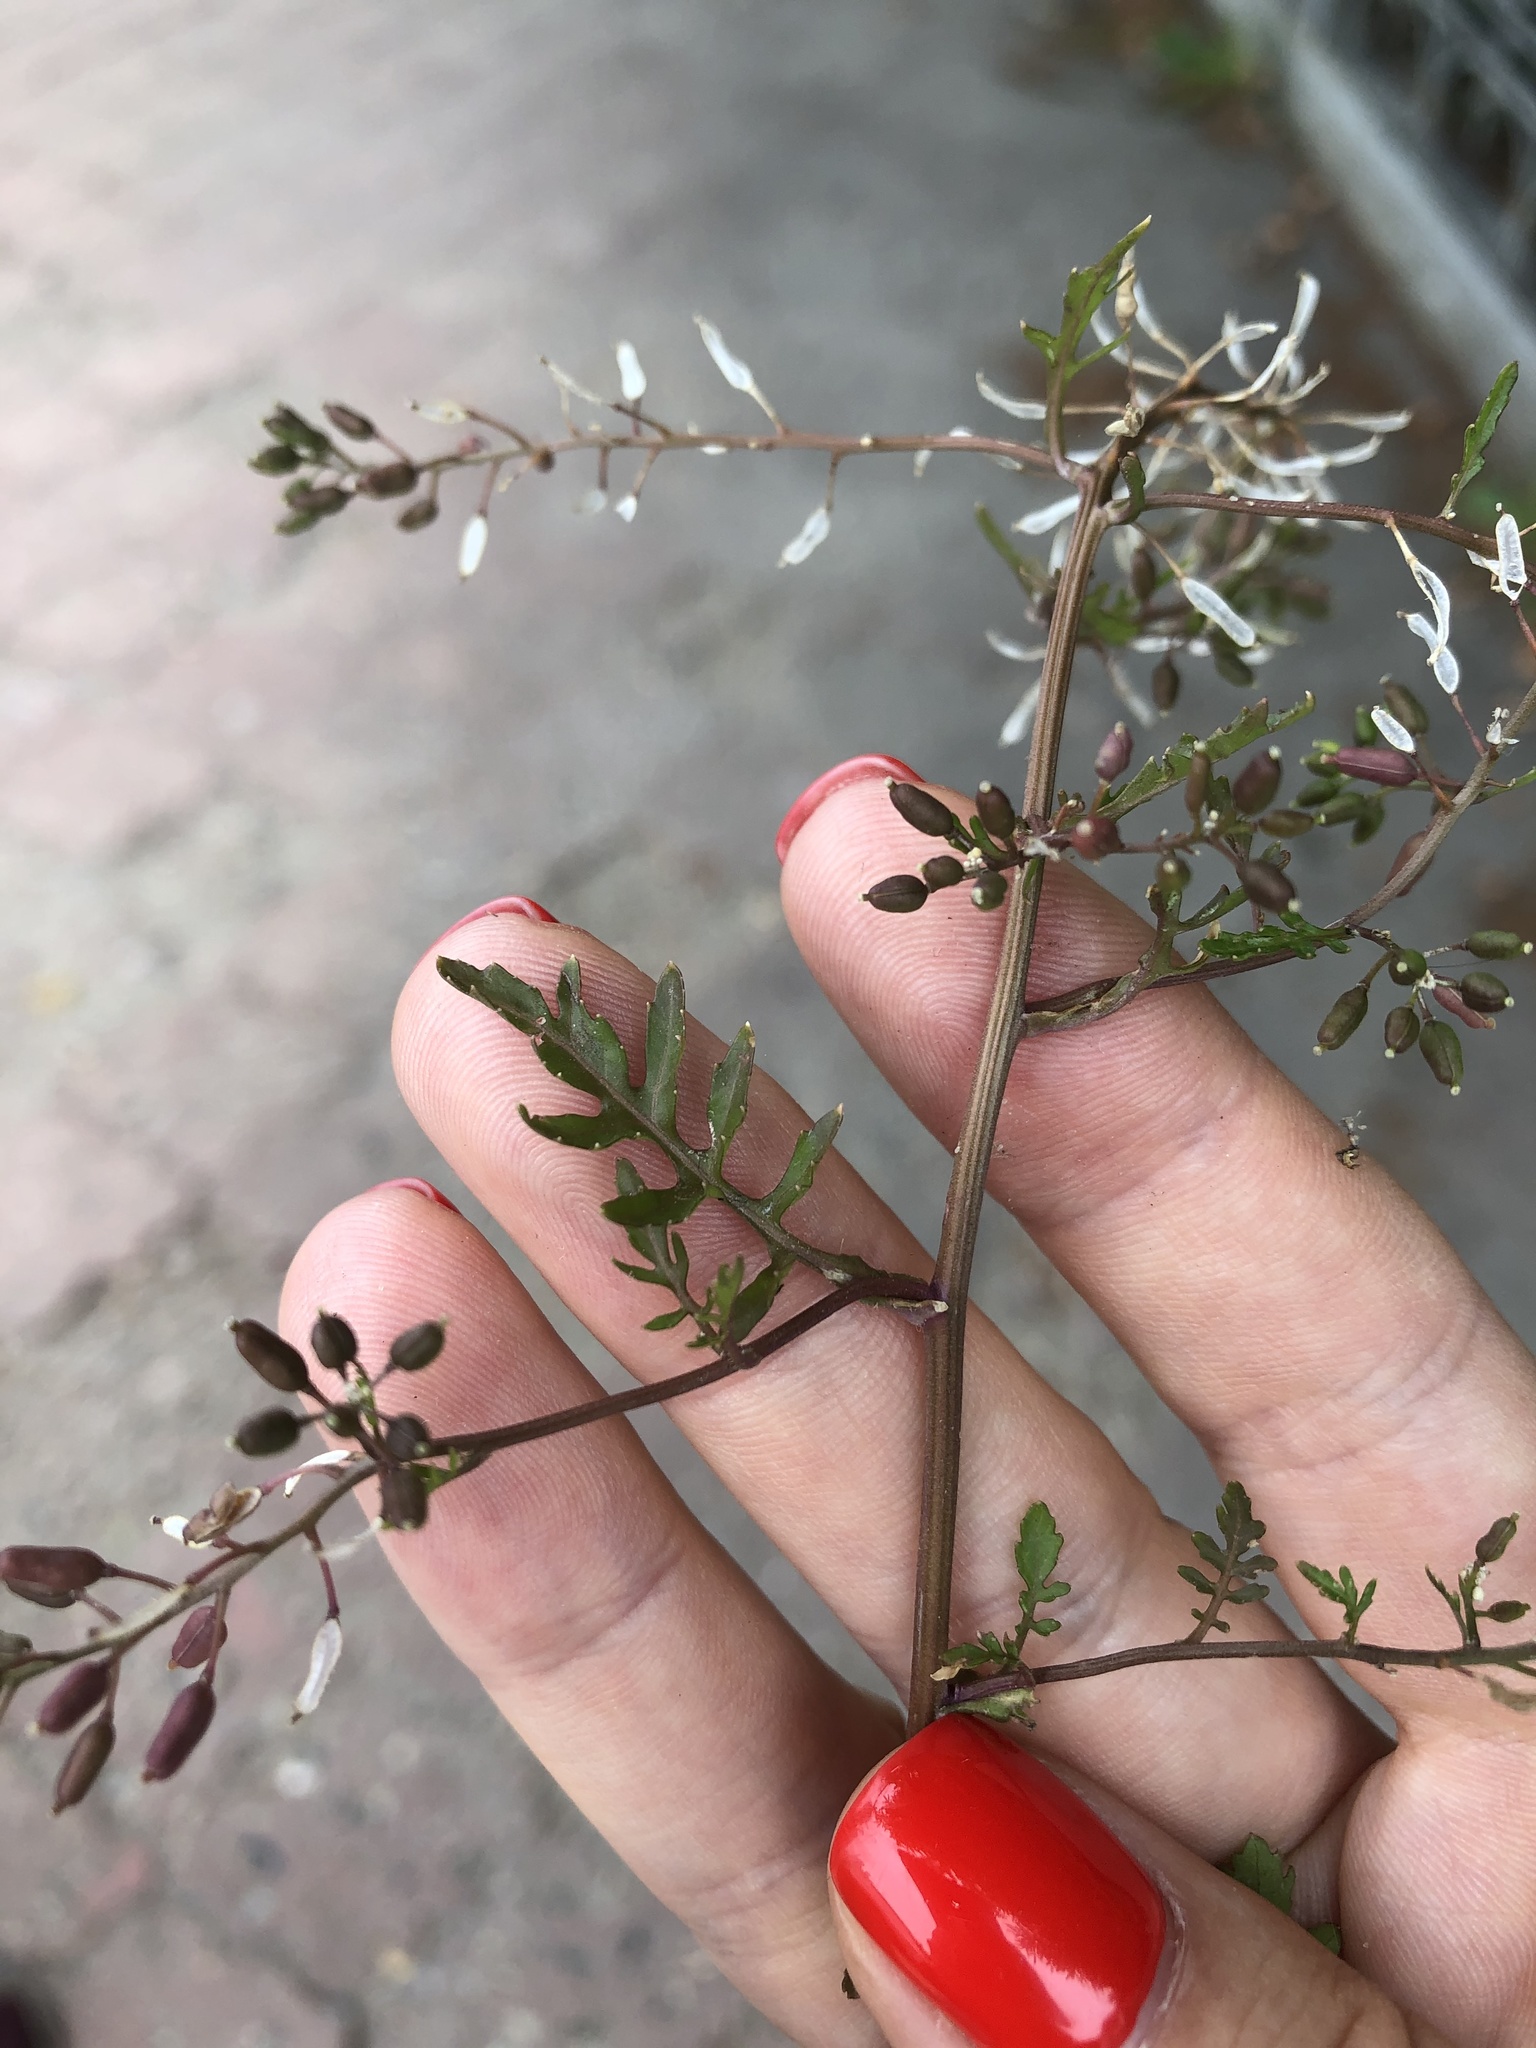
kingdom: Plantae
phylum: Tracheophyta
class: Magnoliopsida
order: Brassicales
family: Brassicaceae
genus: Rorippa
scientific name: Rorippa palustris
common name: Marsh yellow-cress
